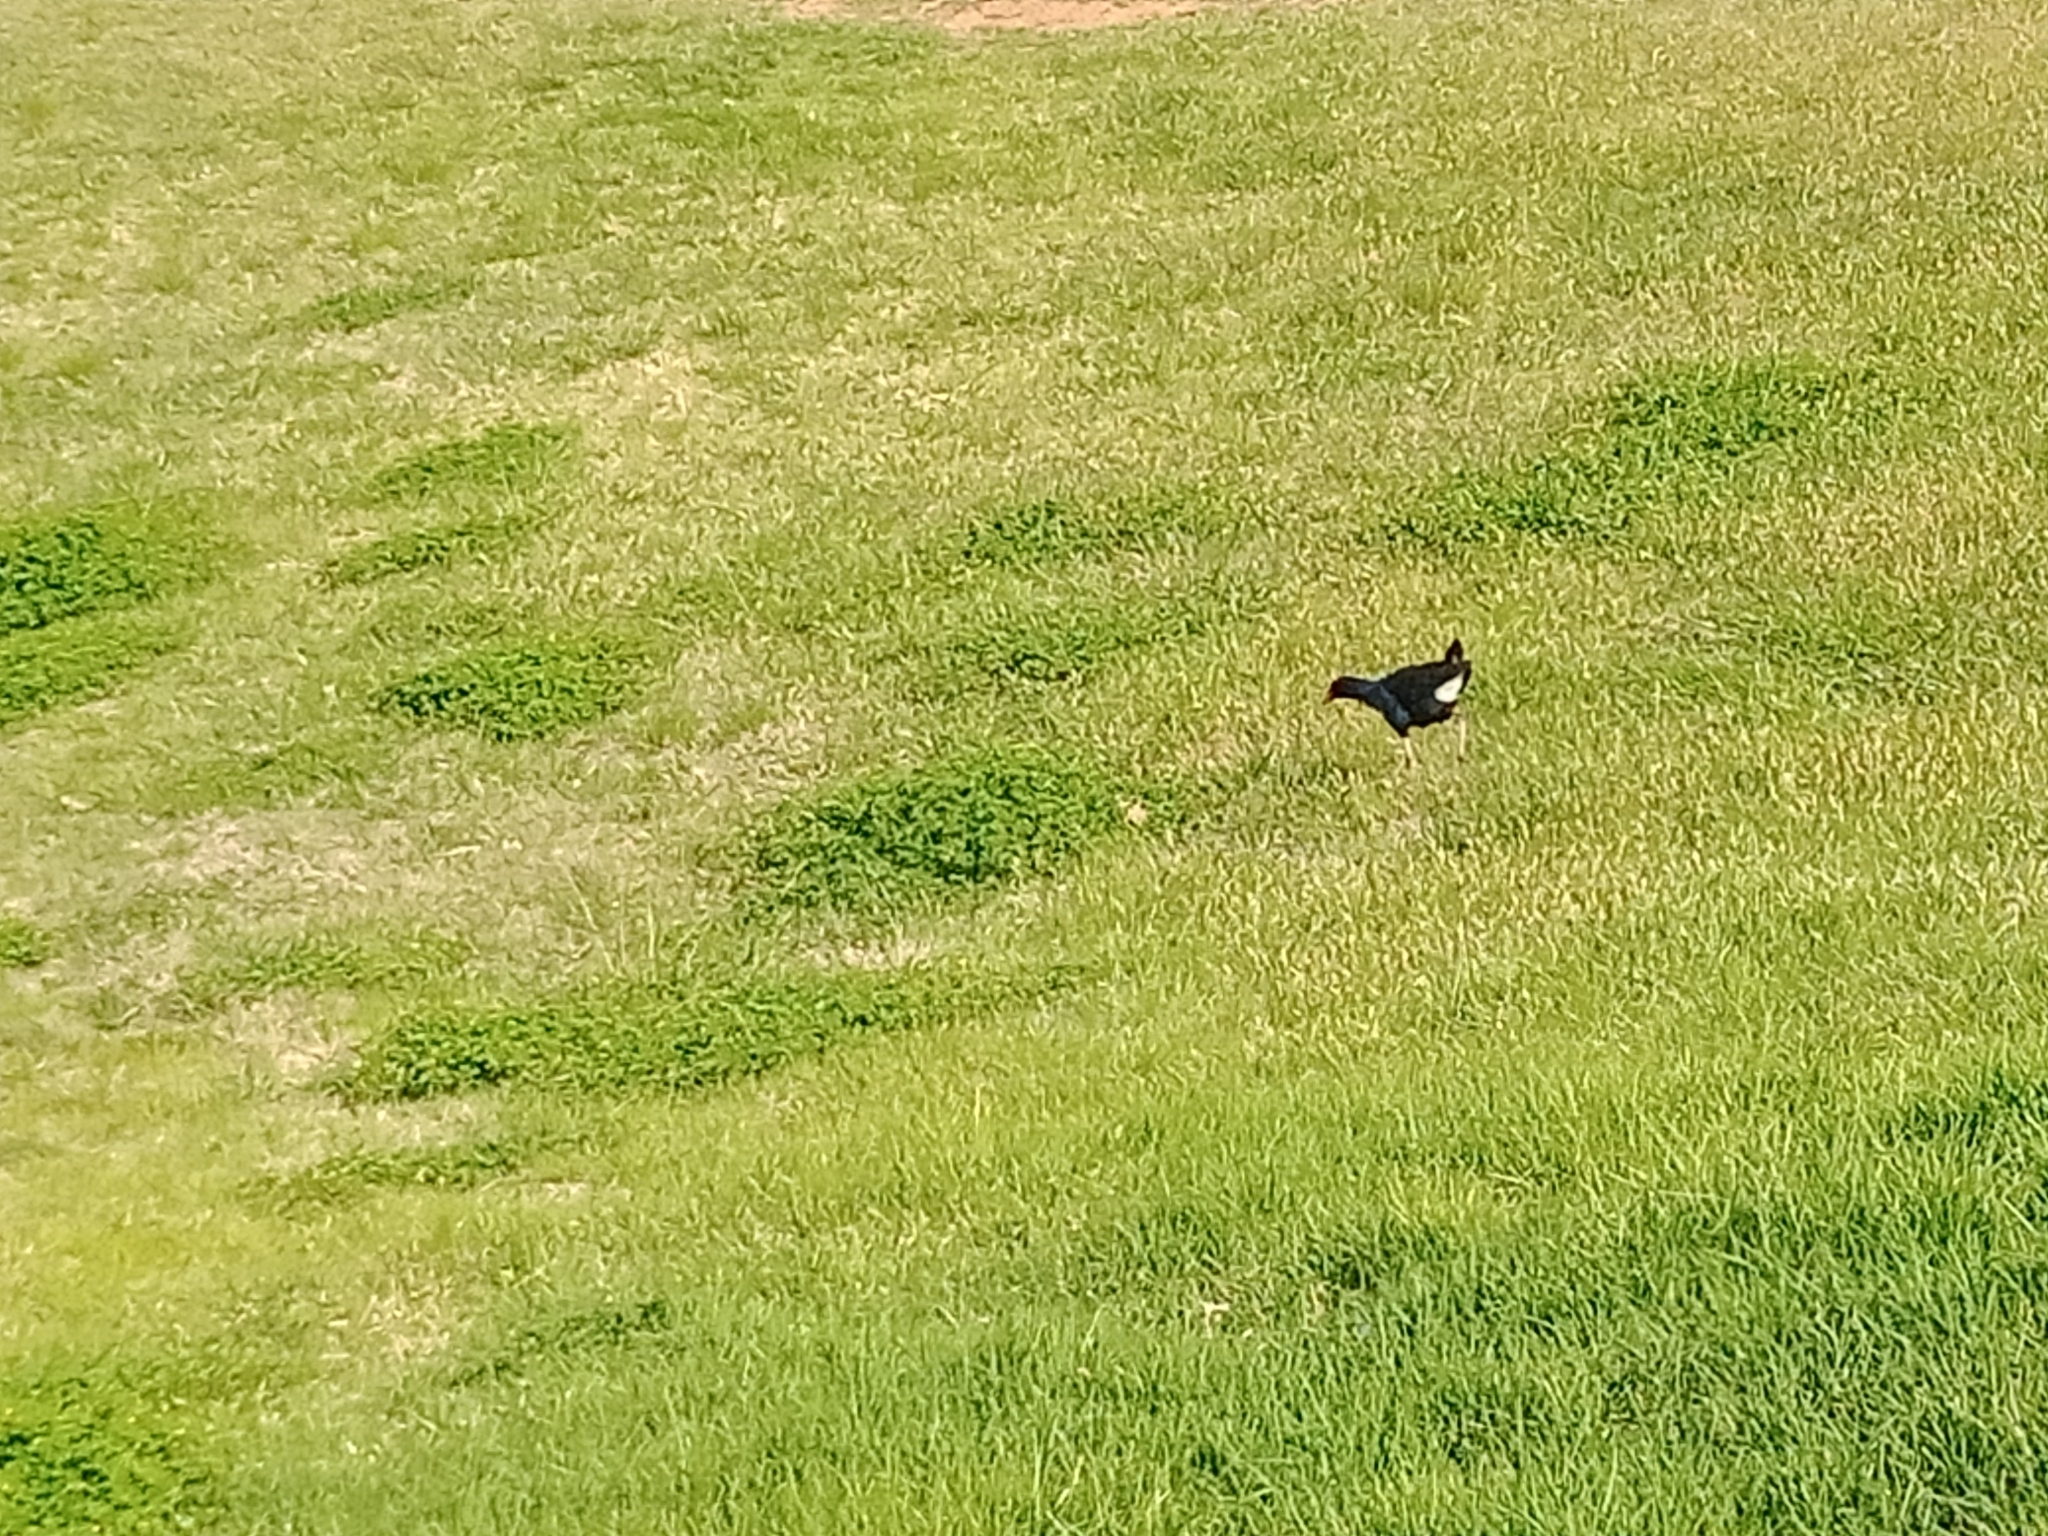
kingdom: Animalia
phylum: Chordata
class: Aves
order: Gruiformes
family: Rallidae
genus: Porphyrio
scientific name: Porphyrio melanotus
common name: Australasian swamphen
